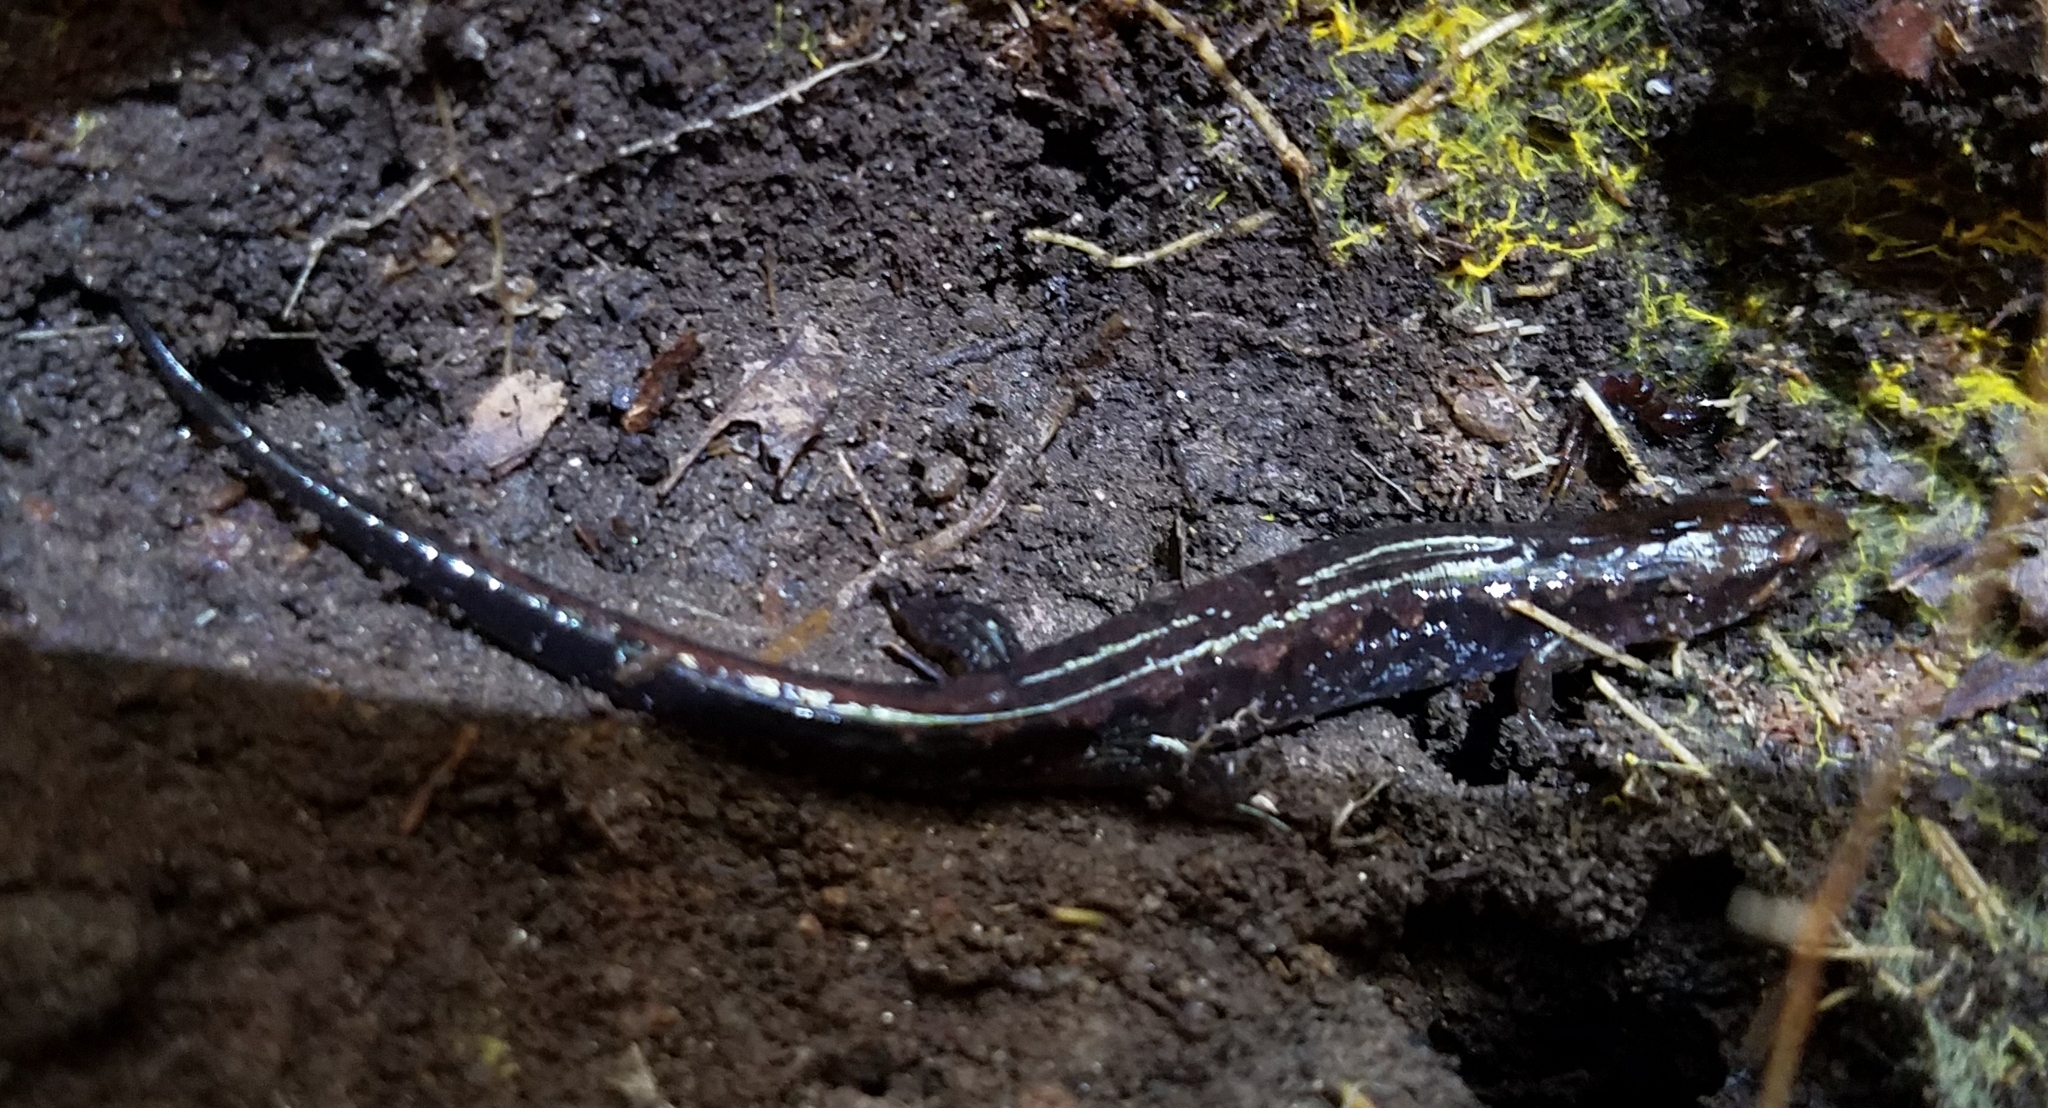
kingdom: Animalia
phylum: Chordata
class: Amphibia
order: Caudata
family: Plethodontidae
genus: Desmognathus
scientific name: Desmognathus ocoee
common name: Ocoee salamander
